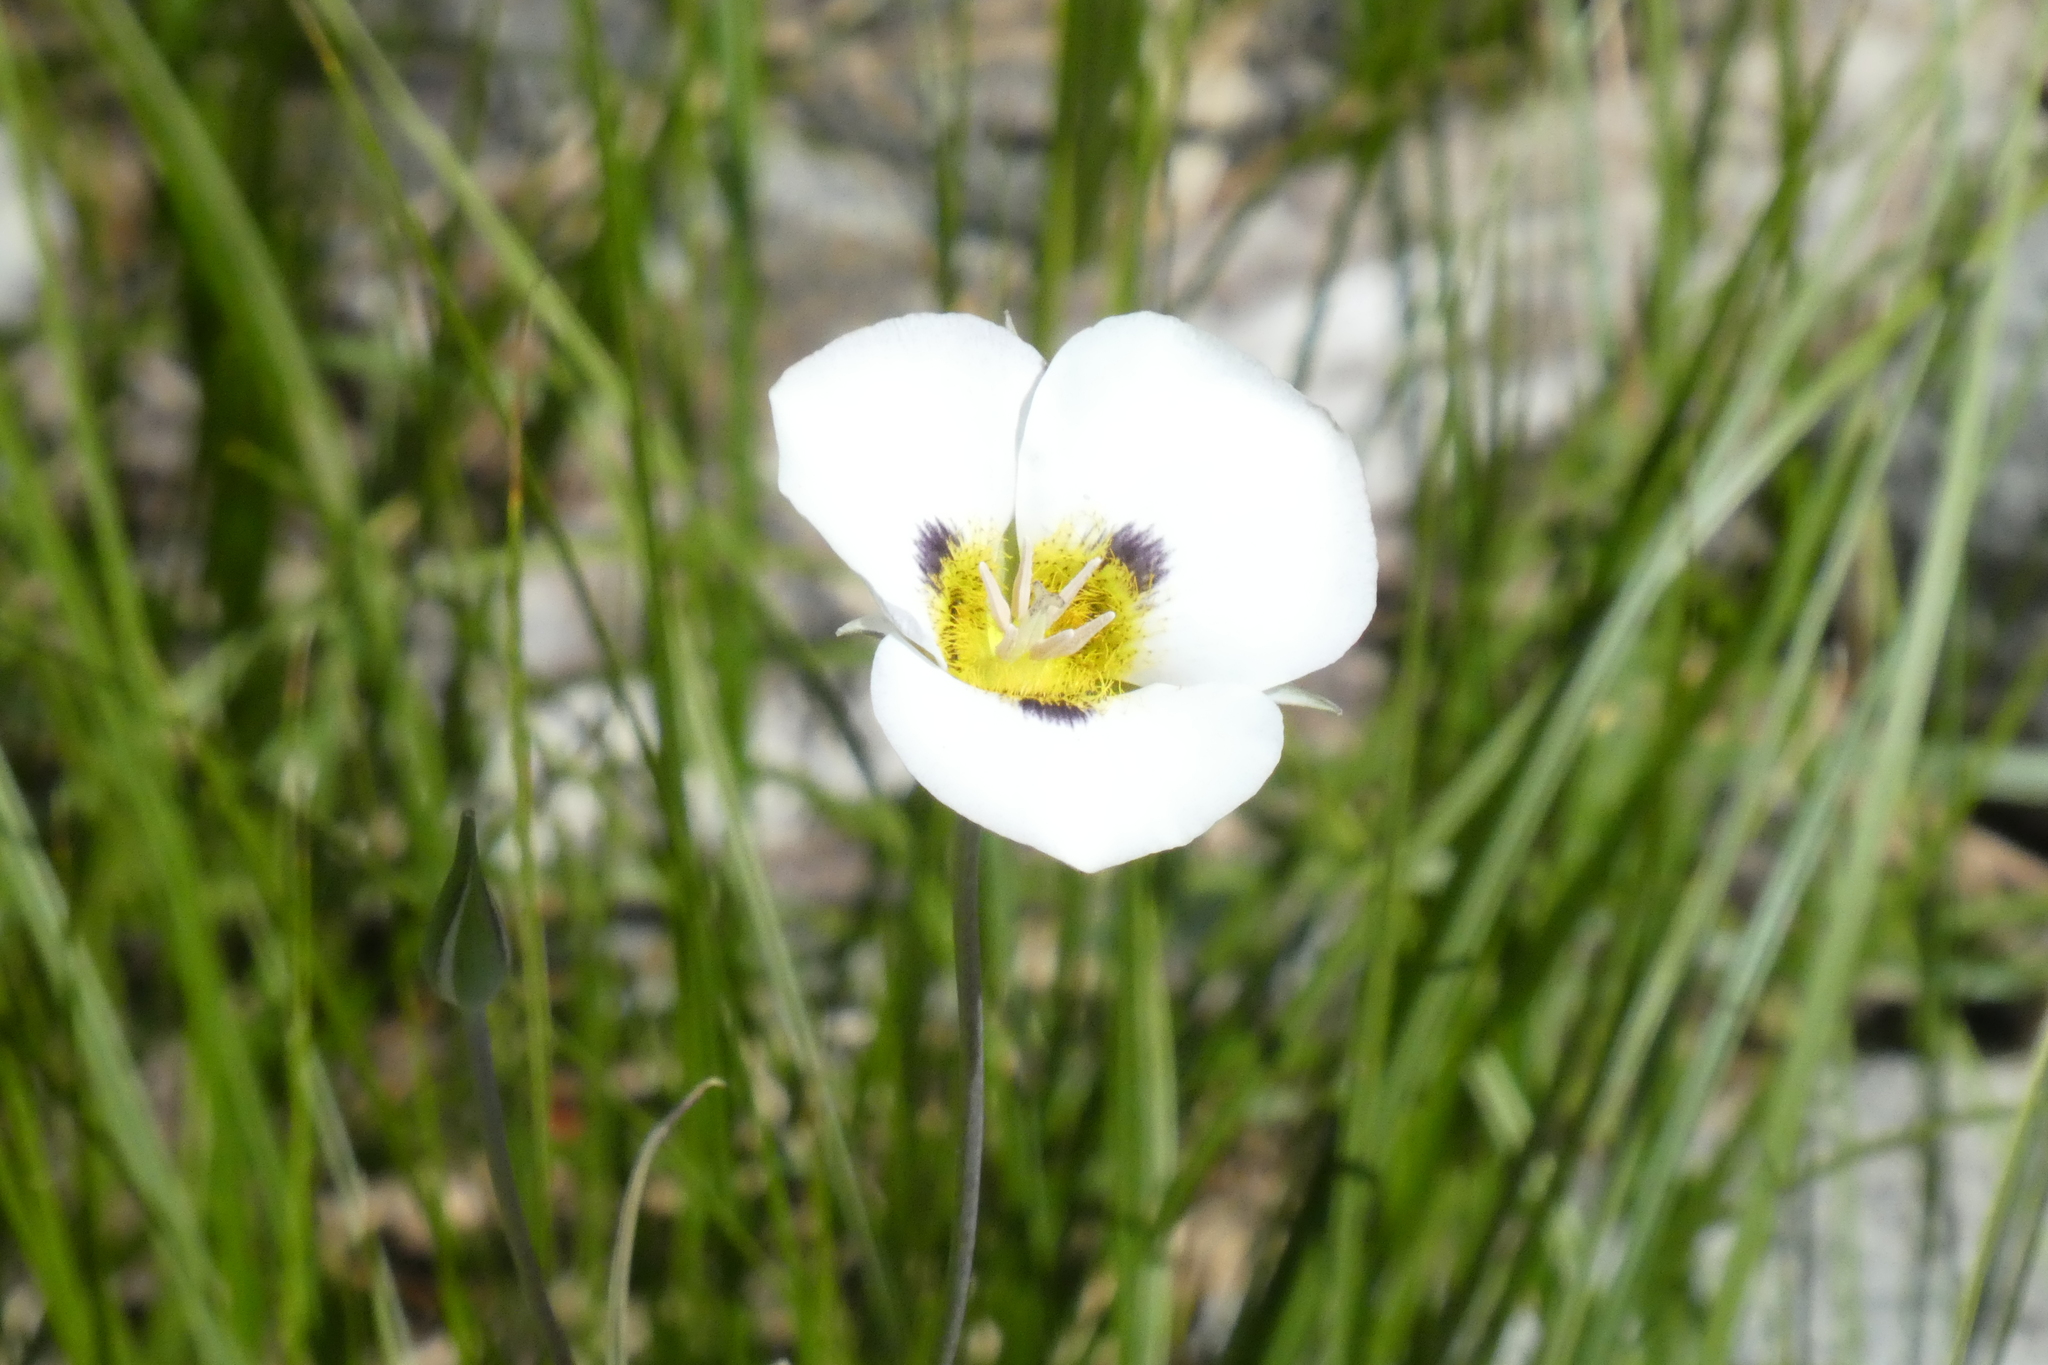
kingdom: Plantae
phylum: Tracheophyta
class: Liliopsida
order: Liliales
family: Liliaceae
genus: Calochortus
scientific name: Calochortus leichtlinii
